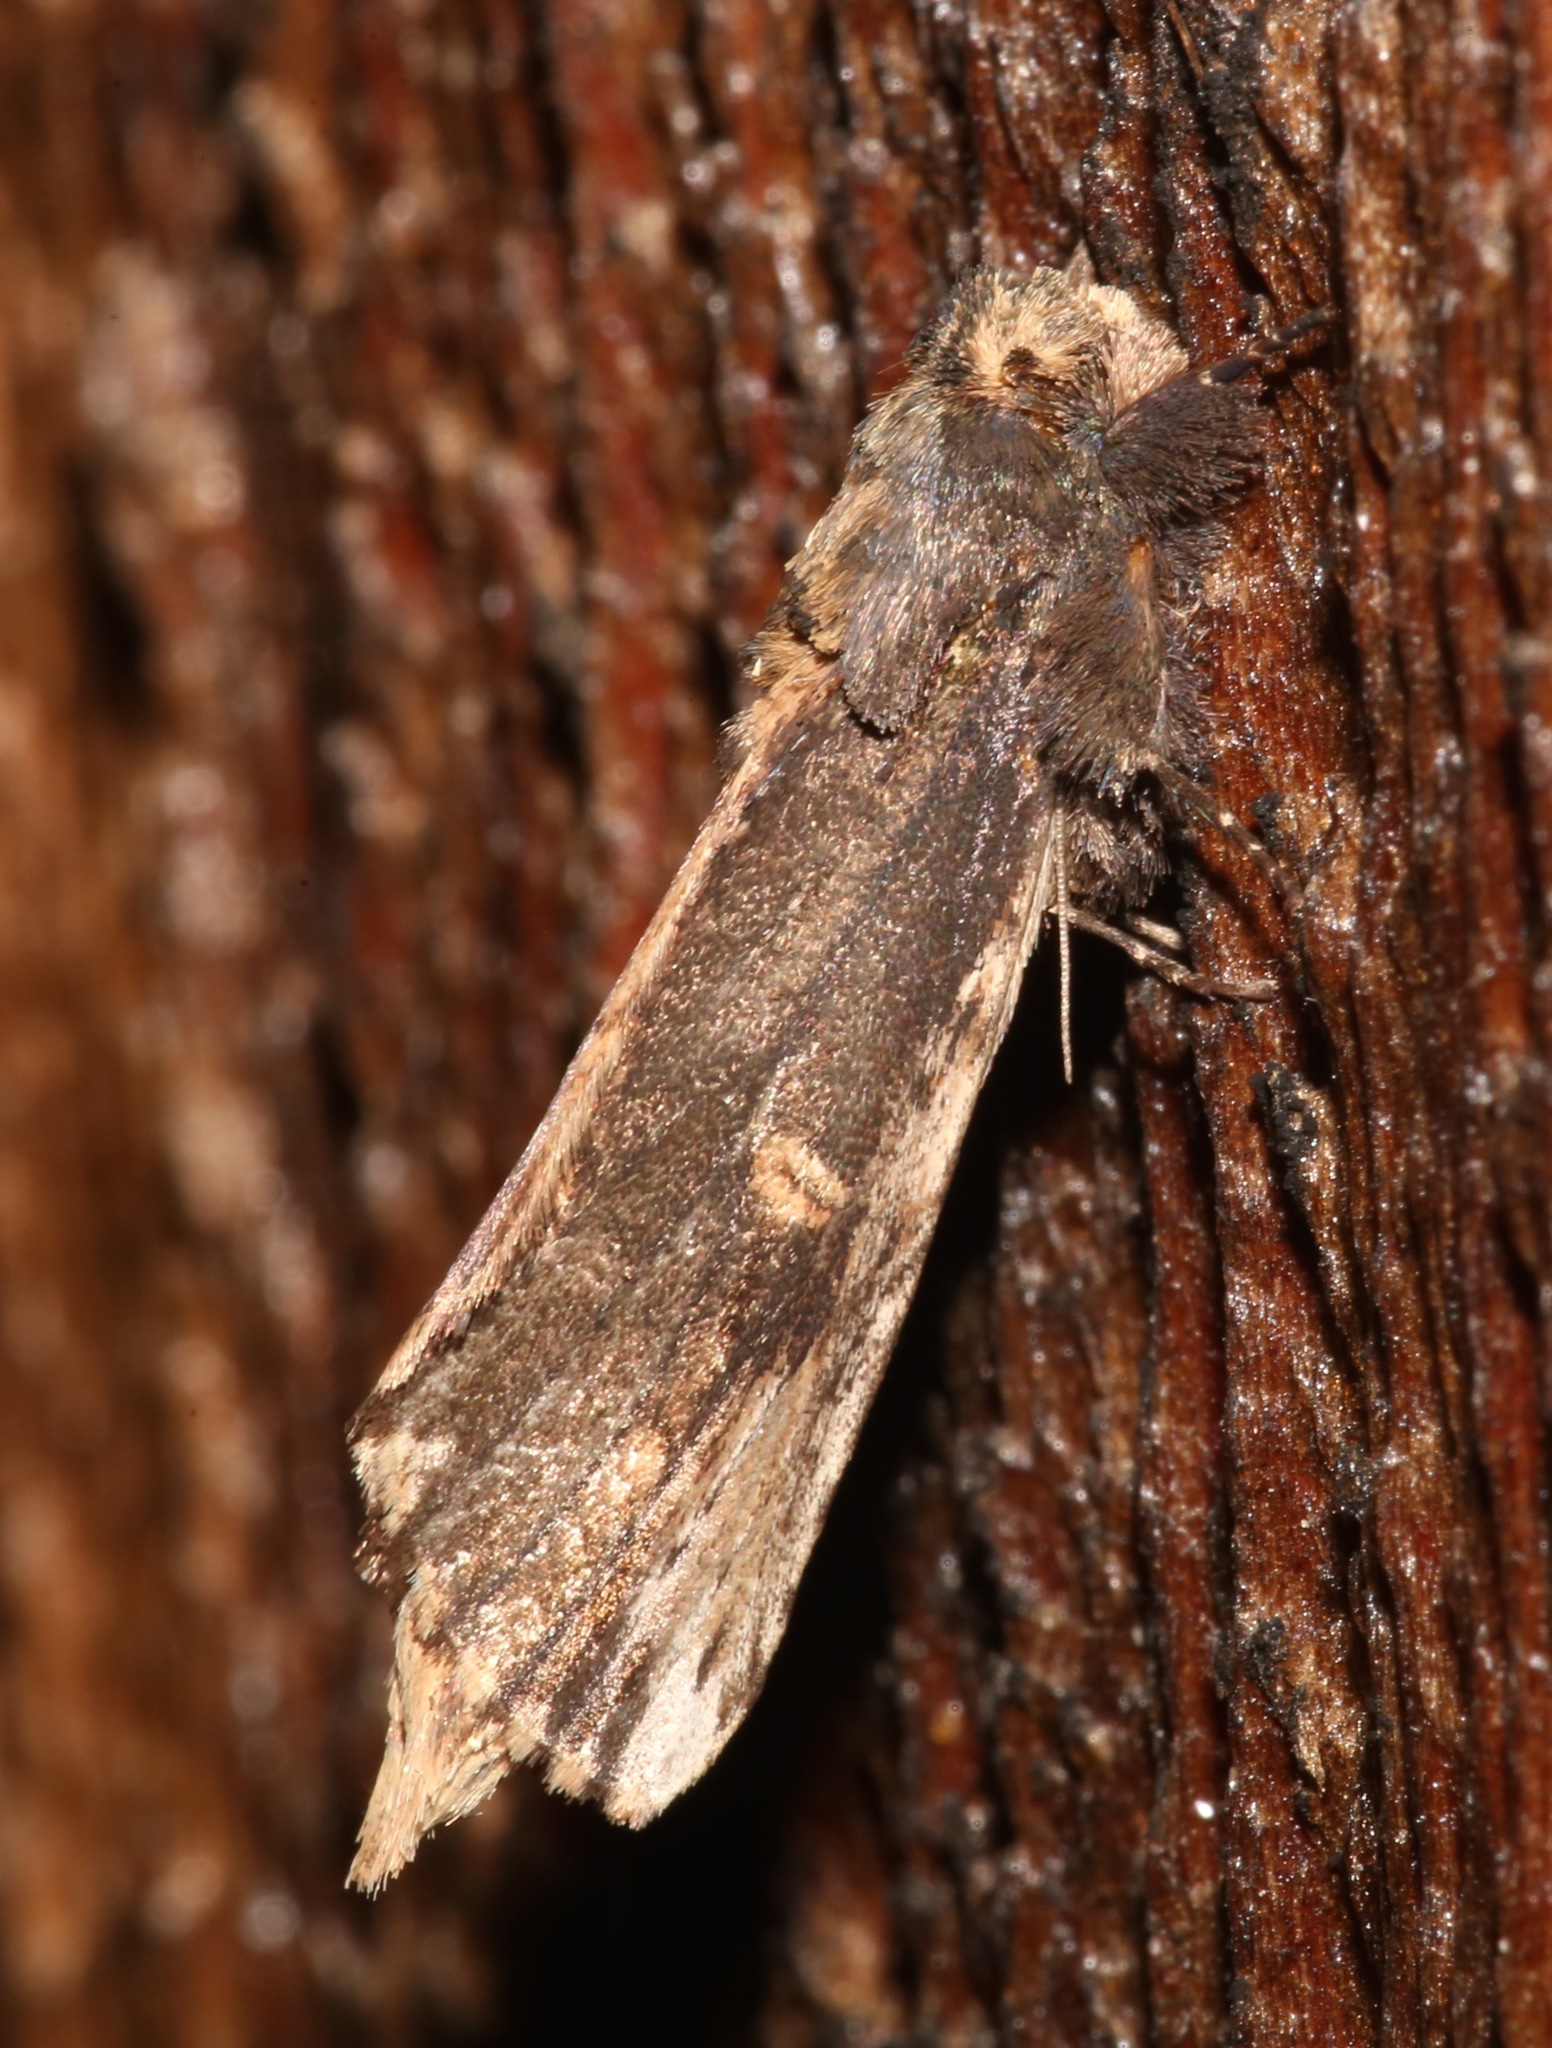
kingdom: Animalia
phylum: Arthropoda
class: Insecta
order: Lepidoptera
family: Notodontidae
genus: Schizura
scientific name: Schizura ipomaeae
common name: Morning-glory prominent
